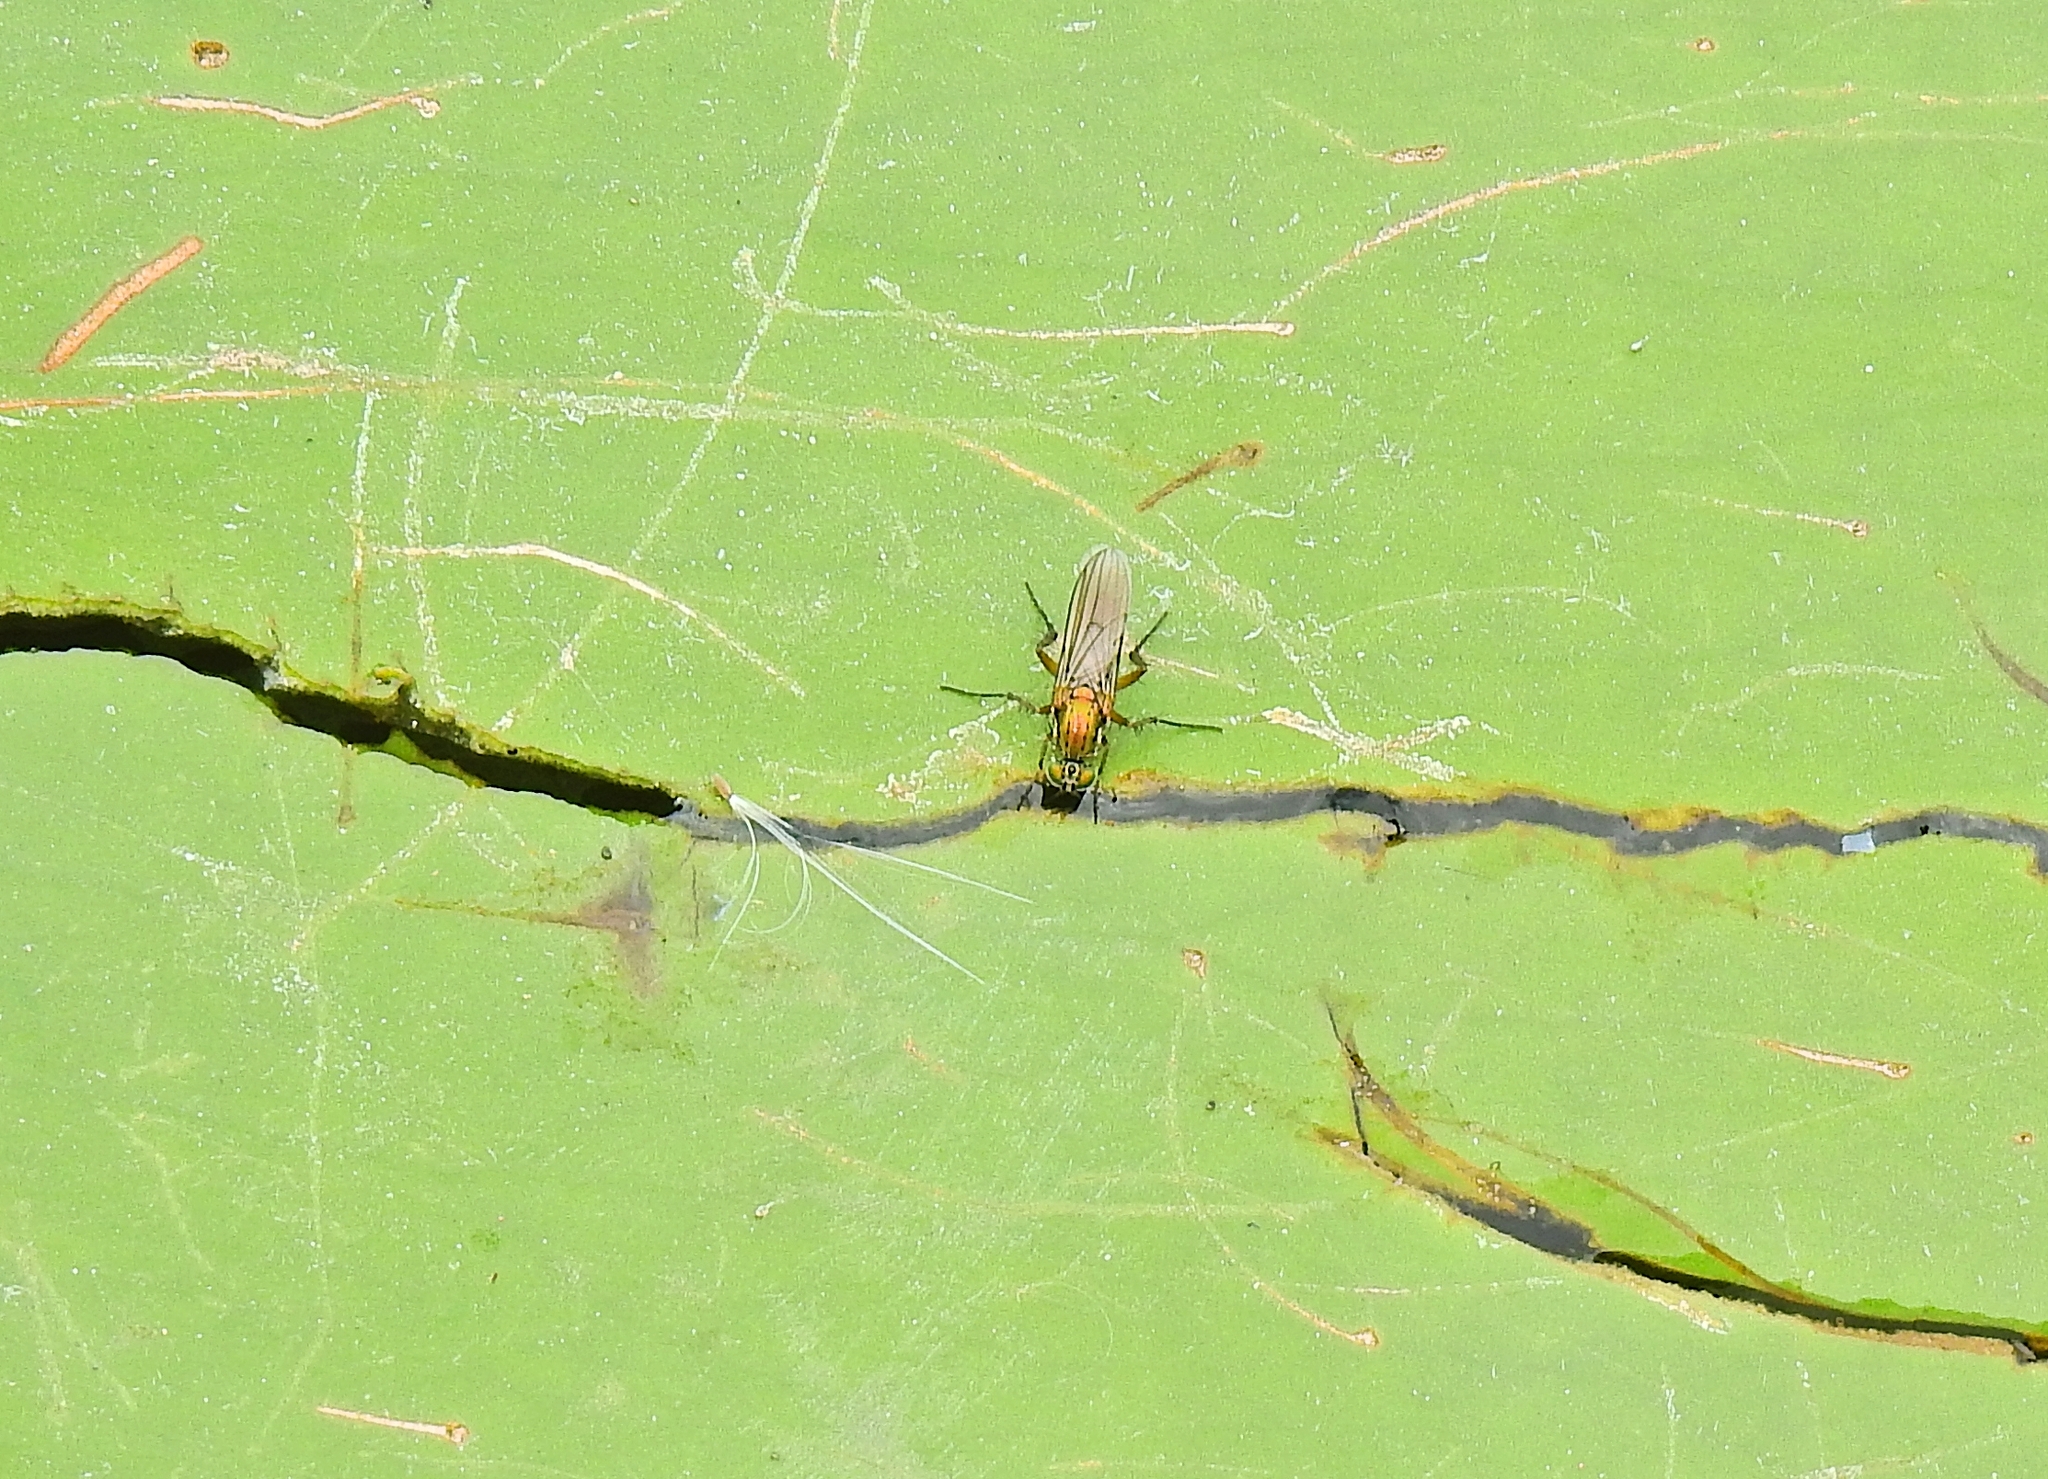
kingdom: Animalia
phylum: Arthropoda
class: Insecta
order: Diptera
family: Dolichopodidae
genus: Poecilobothrus
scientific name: Poecilobothrus nobilitatus
